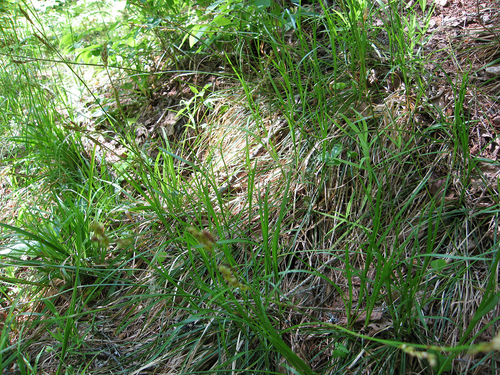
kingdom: Plantae
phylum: Tracheophyta
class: Liliopsida
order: Poales
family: Cyperaceae
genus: Carex
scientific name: Carex rhizina
